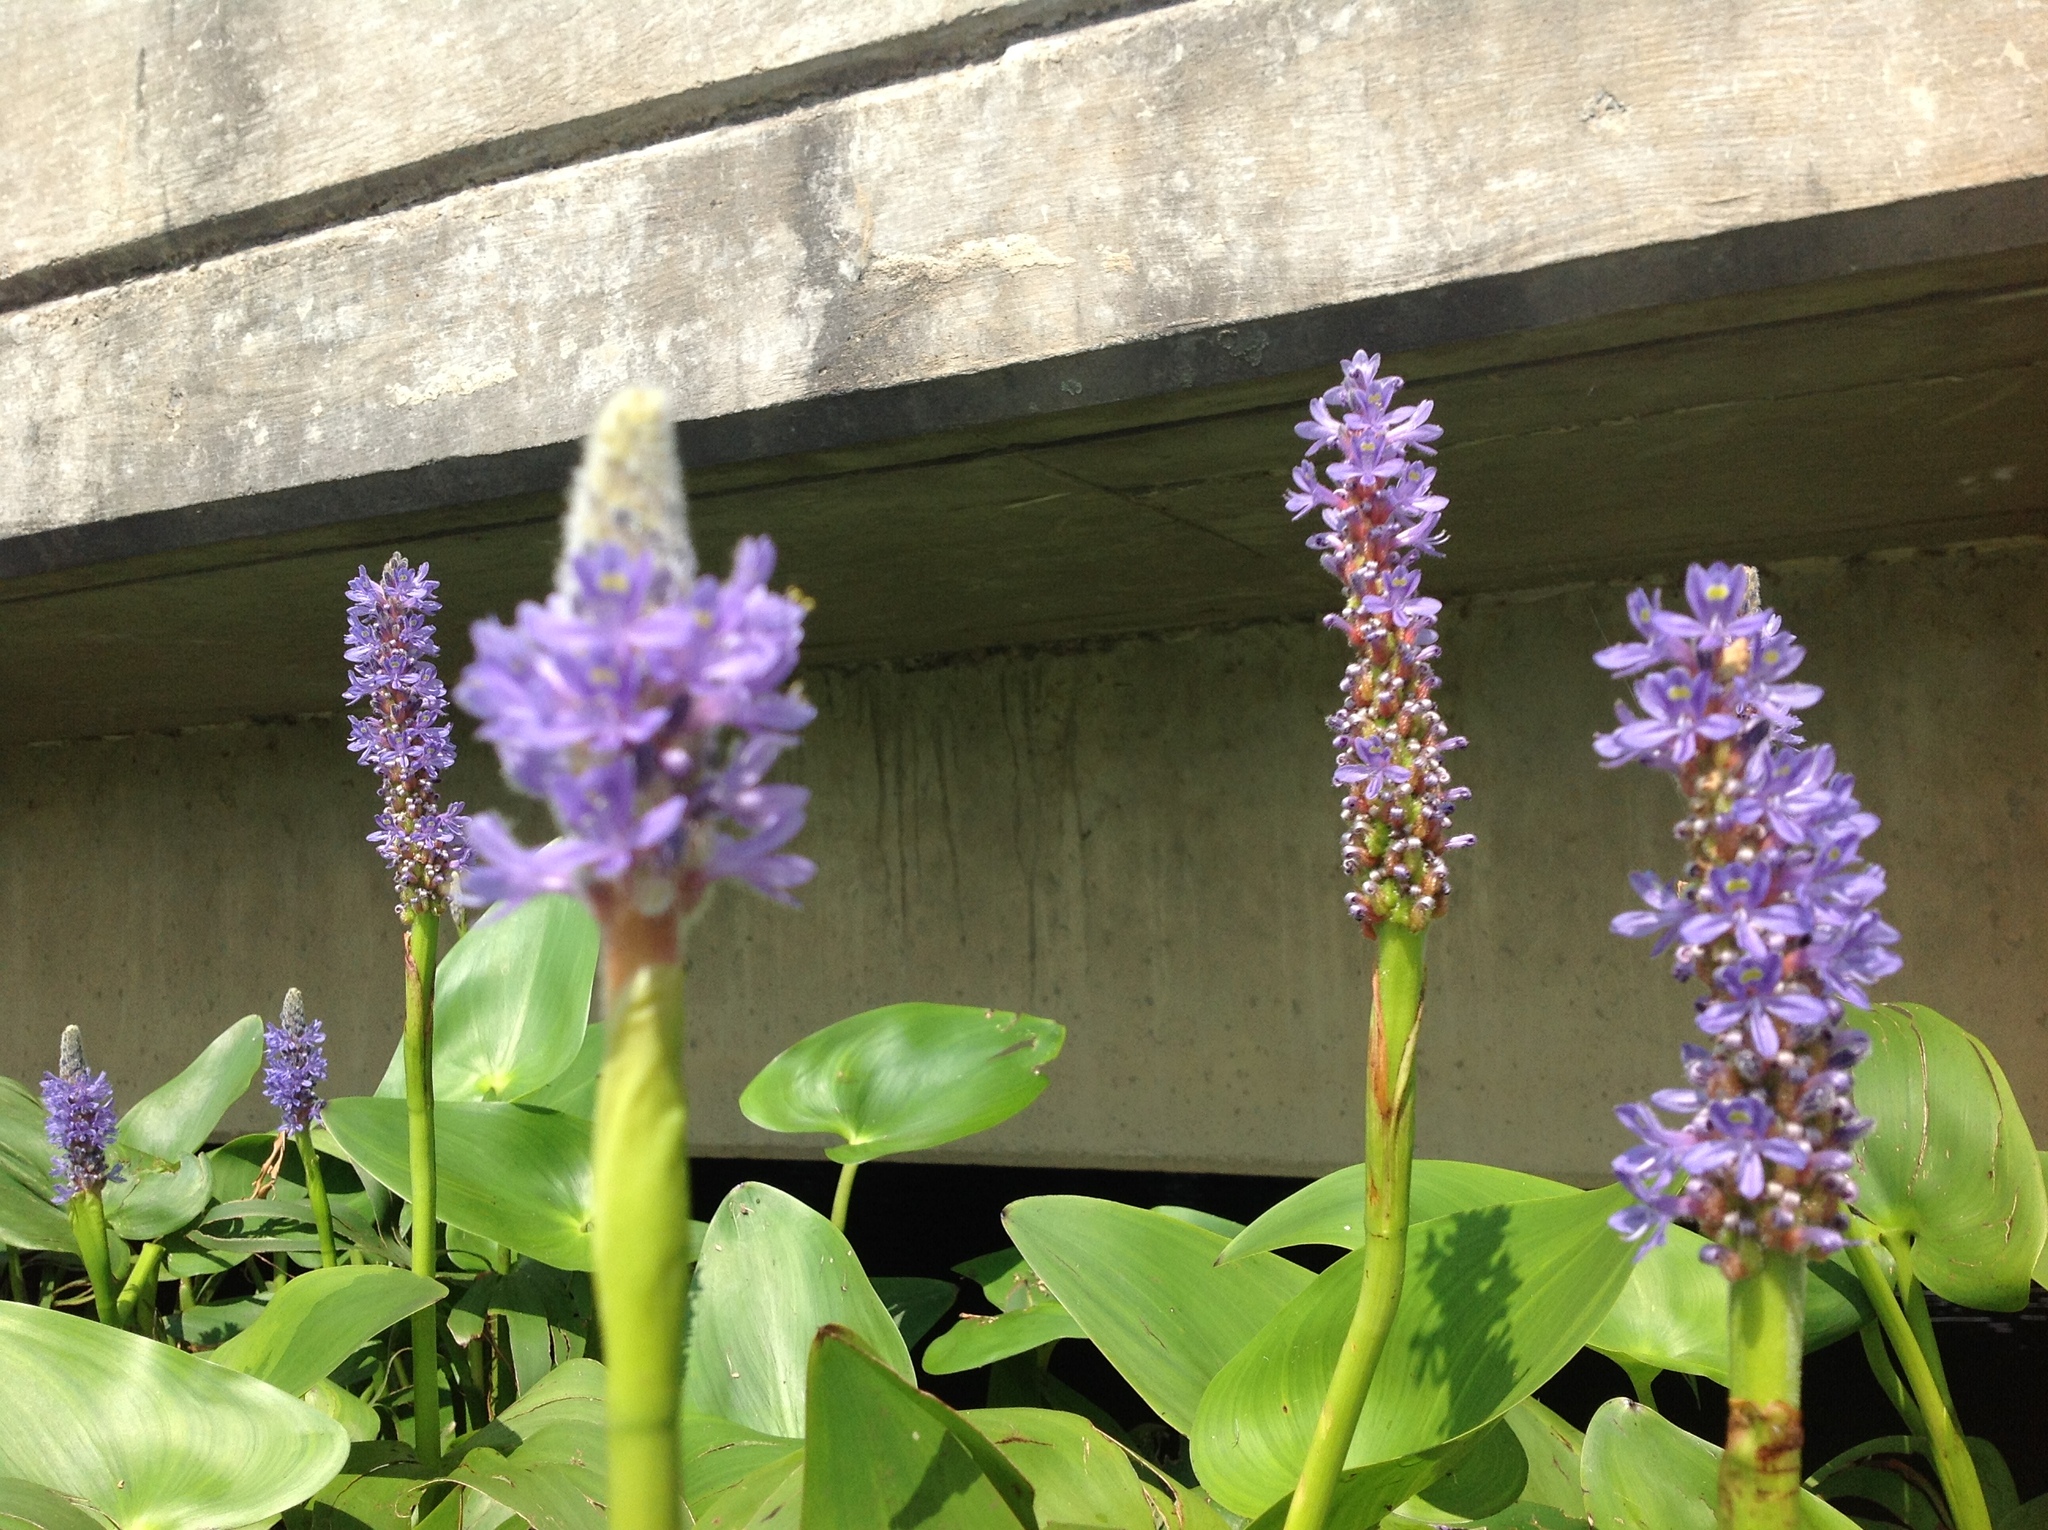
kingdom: Plantae
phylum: Tracheophyta
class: Liliopsida
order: Commelinales
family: Pontederiaceae
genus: Pontederia
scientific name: Pontederia cordata
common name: Pickerelweed
